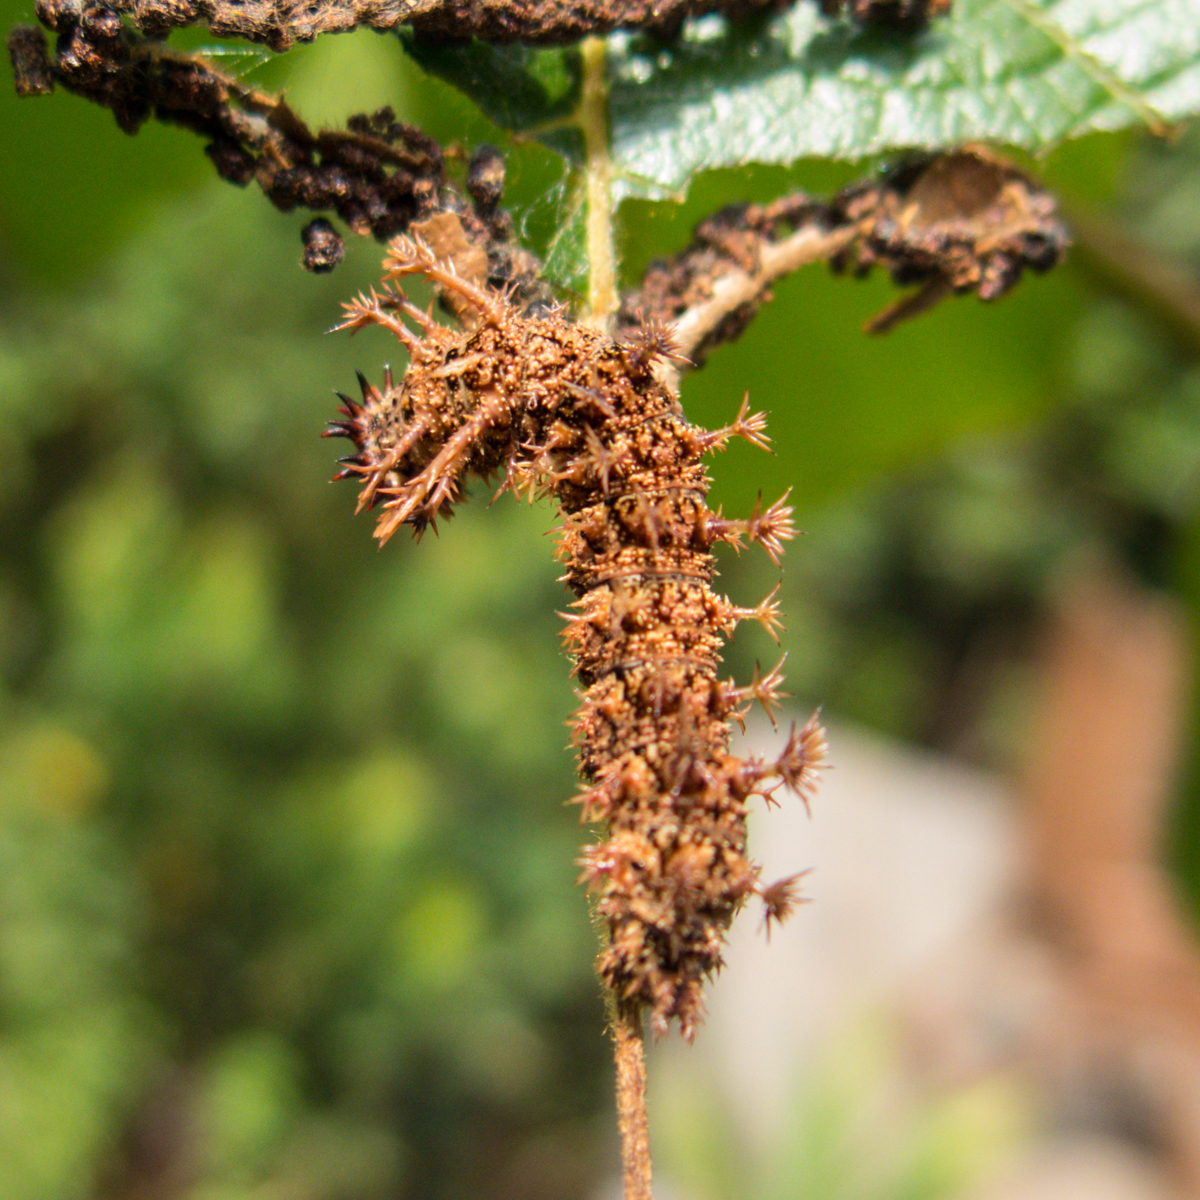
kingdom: Animalia
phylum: Arthropoda
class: Insecta
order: Lepidoptera
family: Nymphalidae
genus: Limenitis
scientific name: Limenitis Moduza procris
